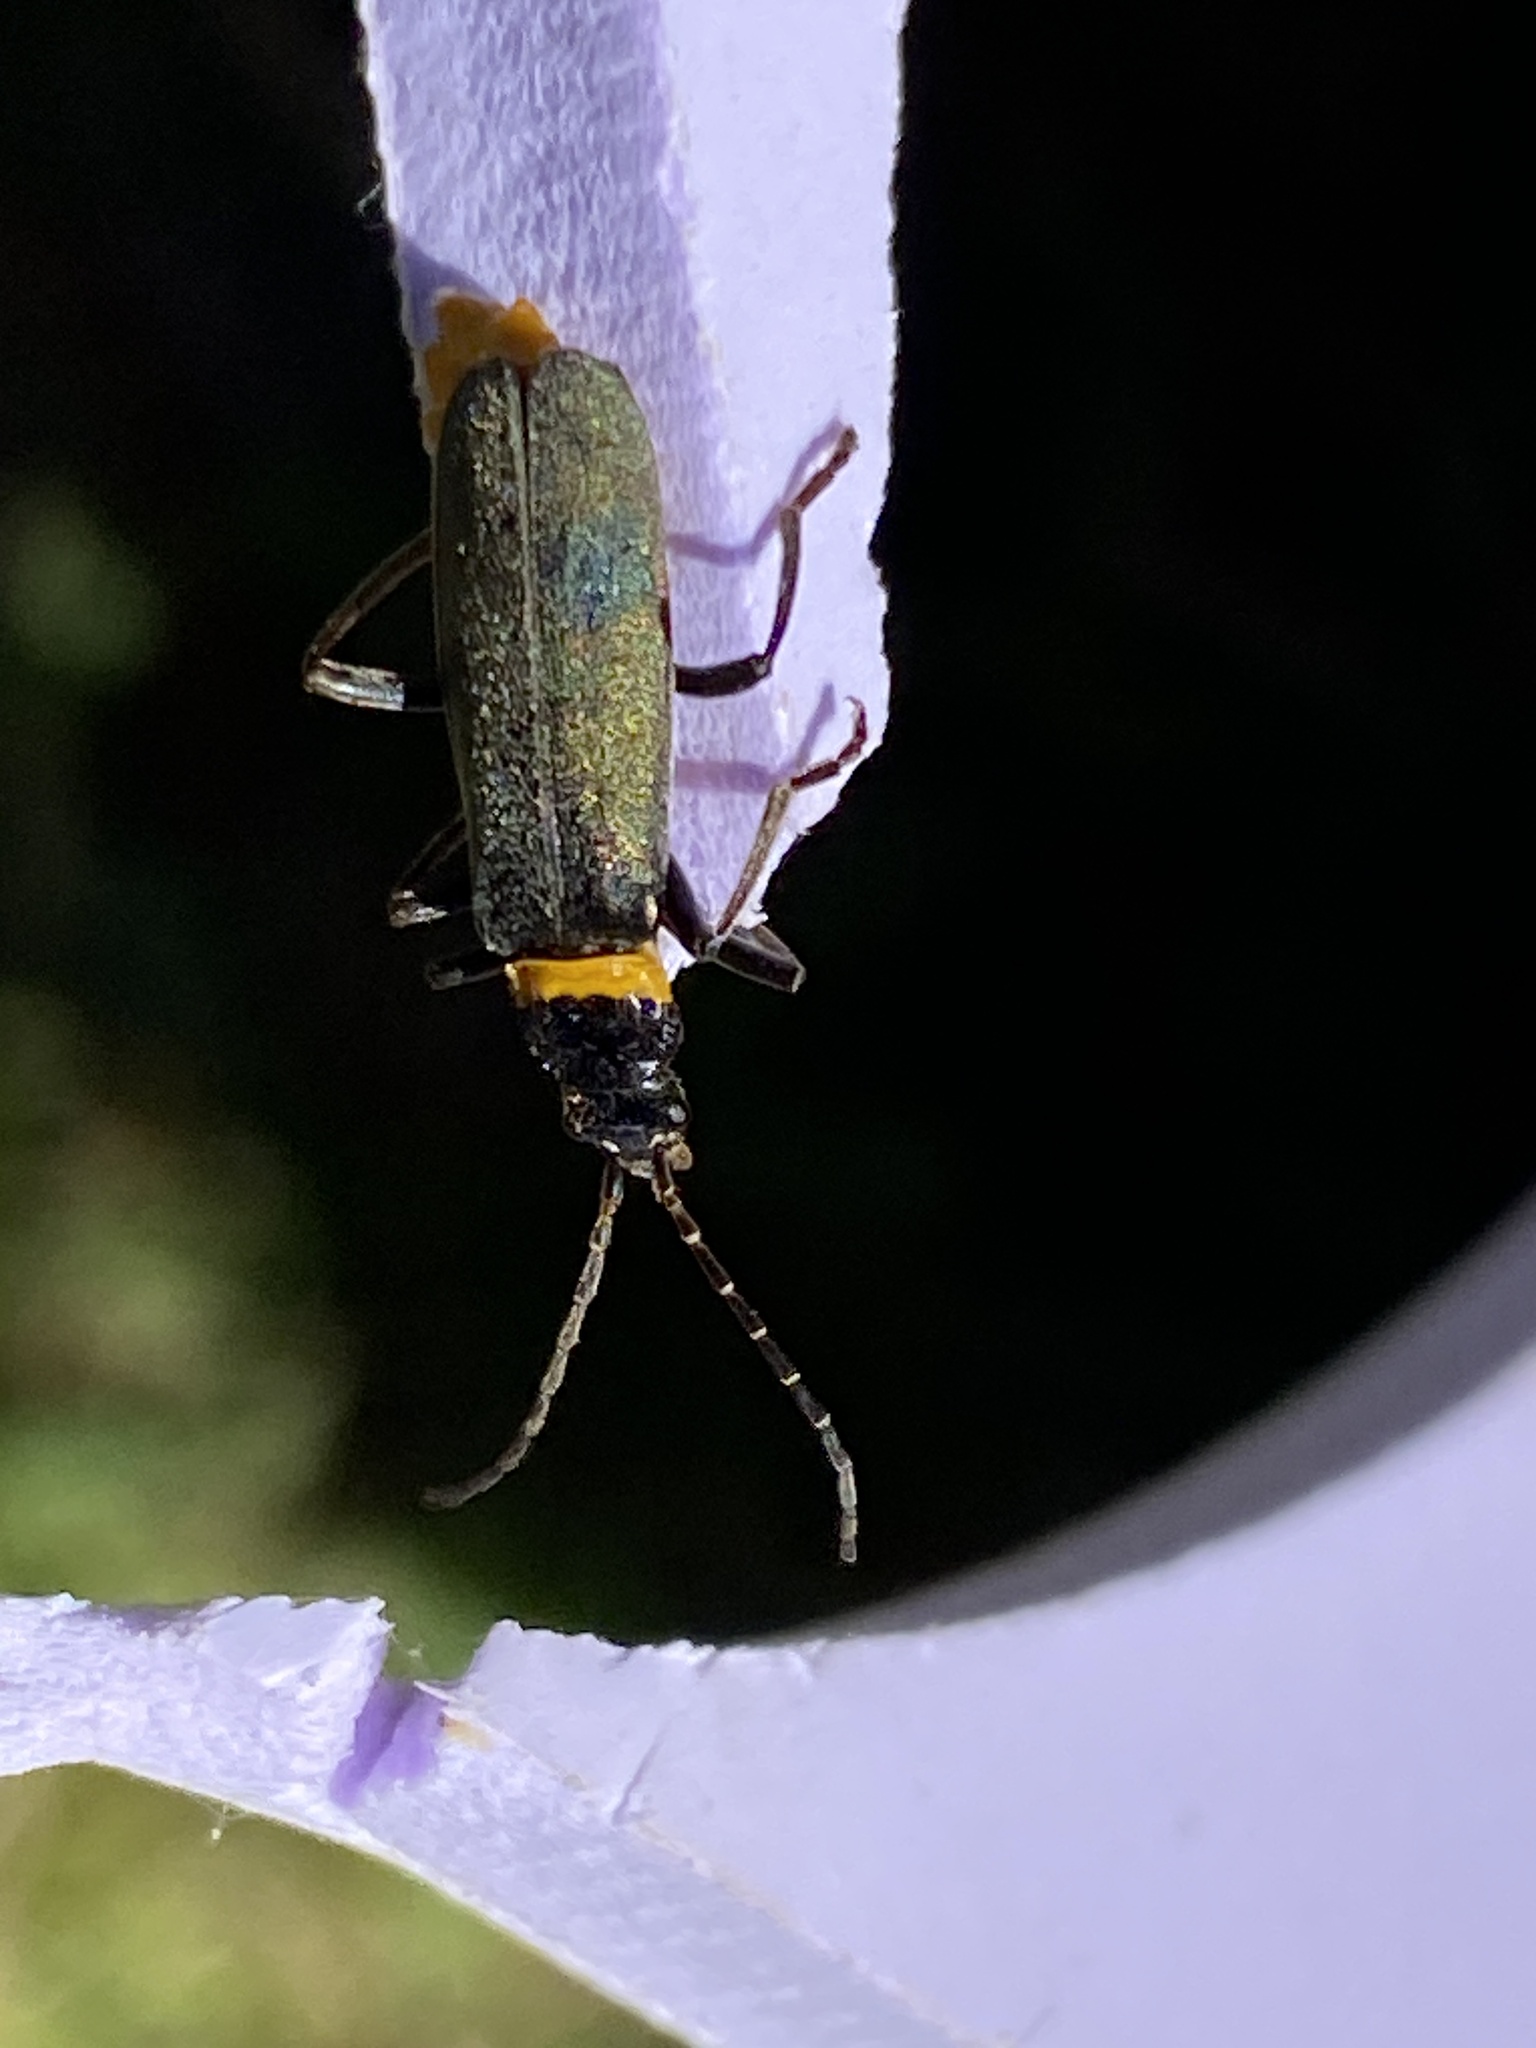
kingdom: Animalia
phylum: Arthropoda
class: Insecta
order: Coleoptera
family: Cantharidae
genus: Chauliognathus
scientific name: Chauliognathus
